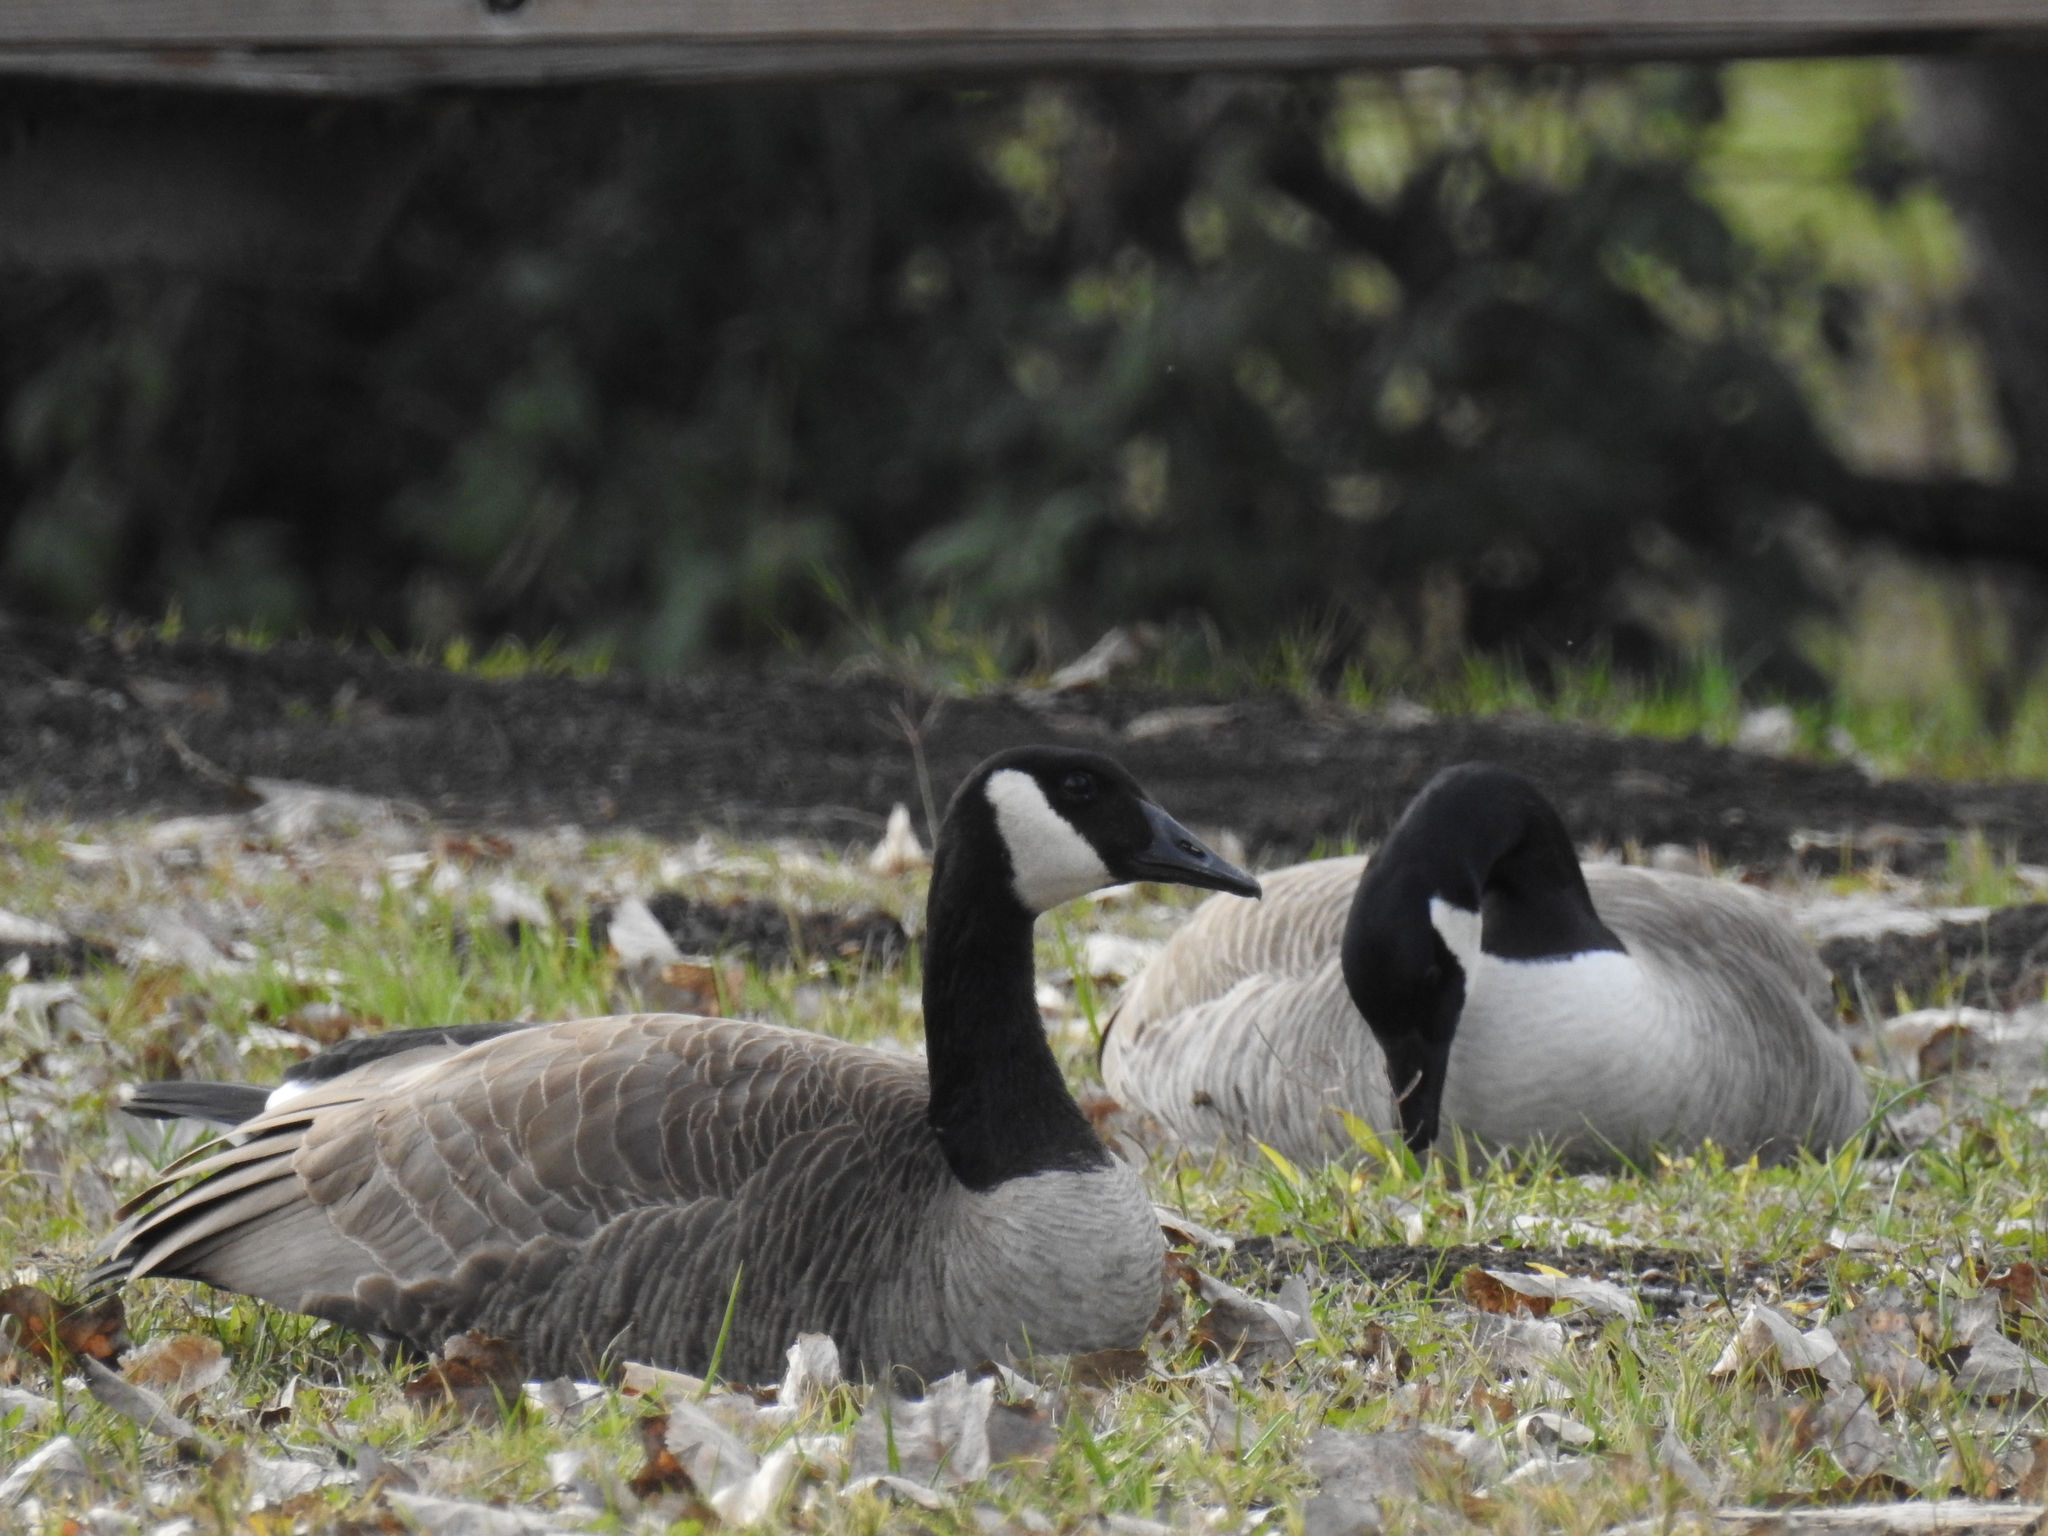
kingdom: Animalia
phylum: Chordata
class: Aves
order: Anseriformes
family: Anatidae
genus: Branta
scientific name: Branta canadensis
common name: Canada goose
